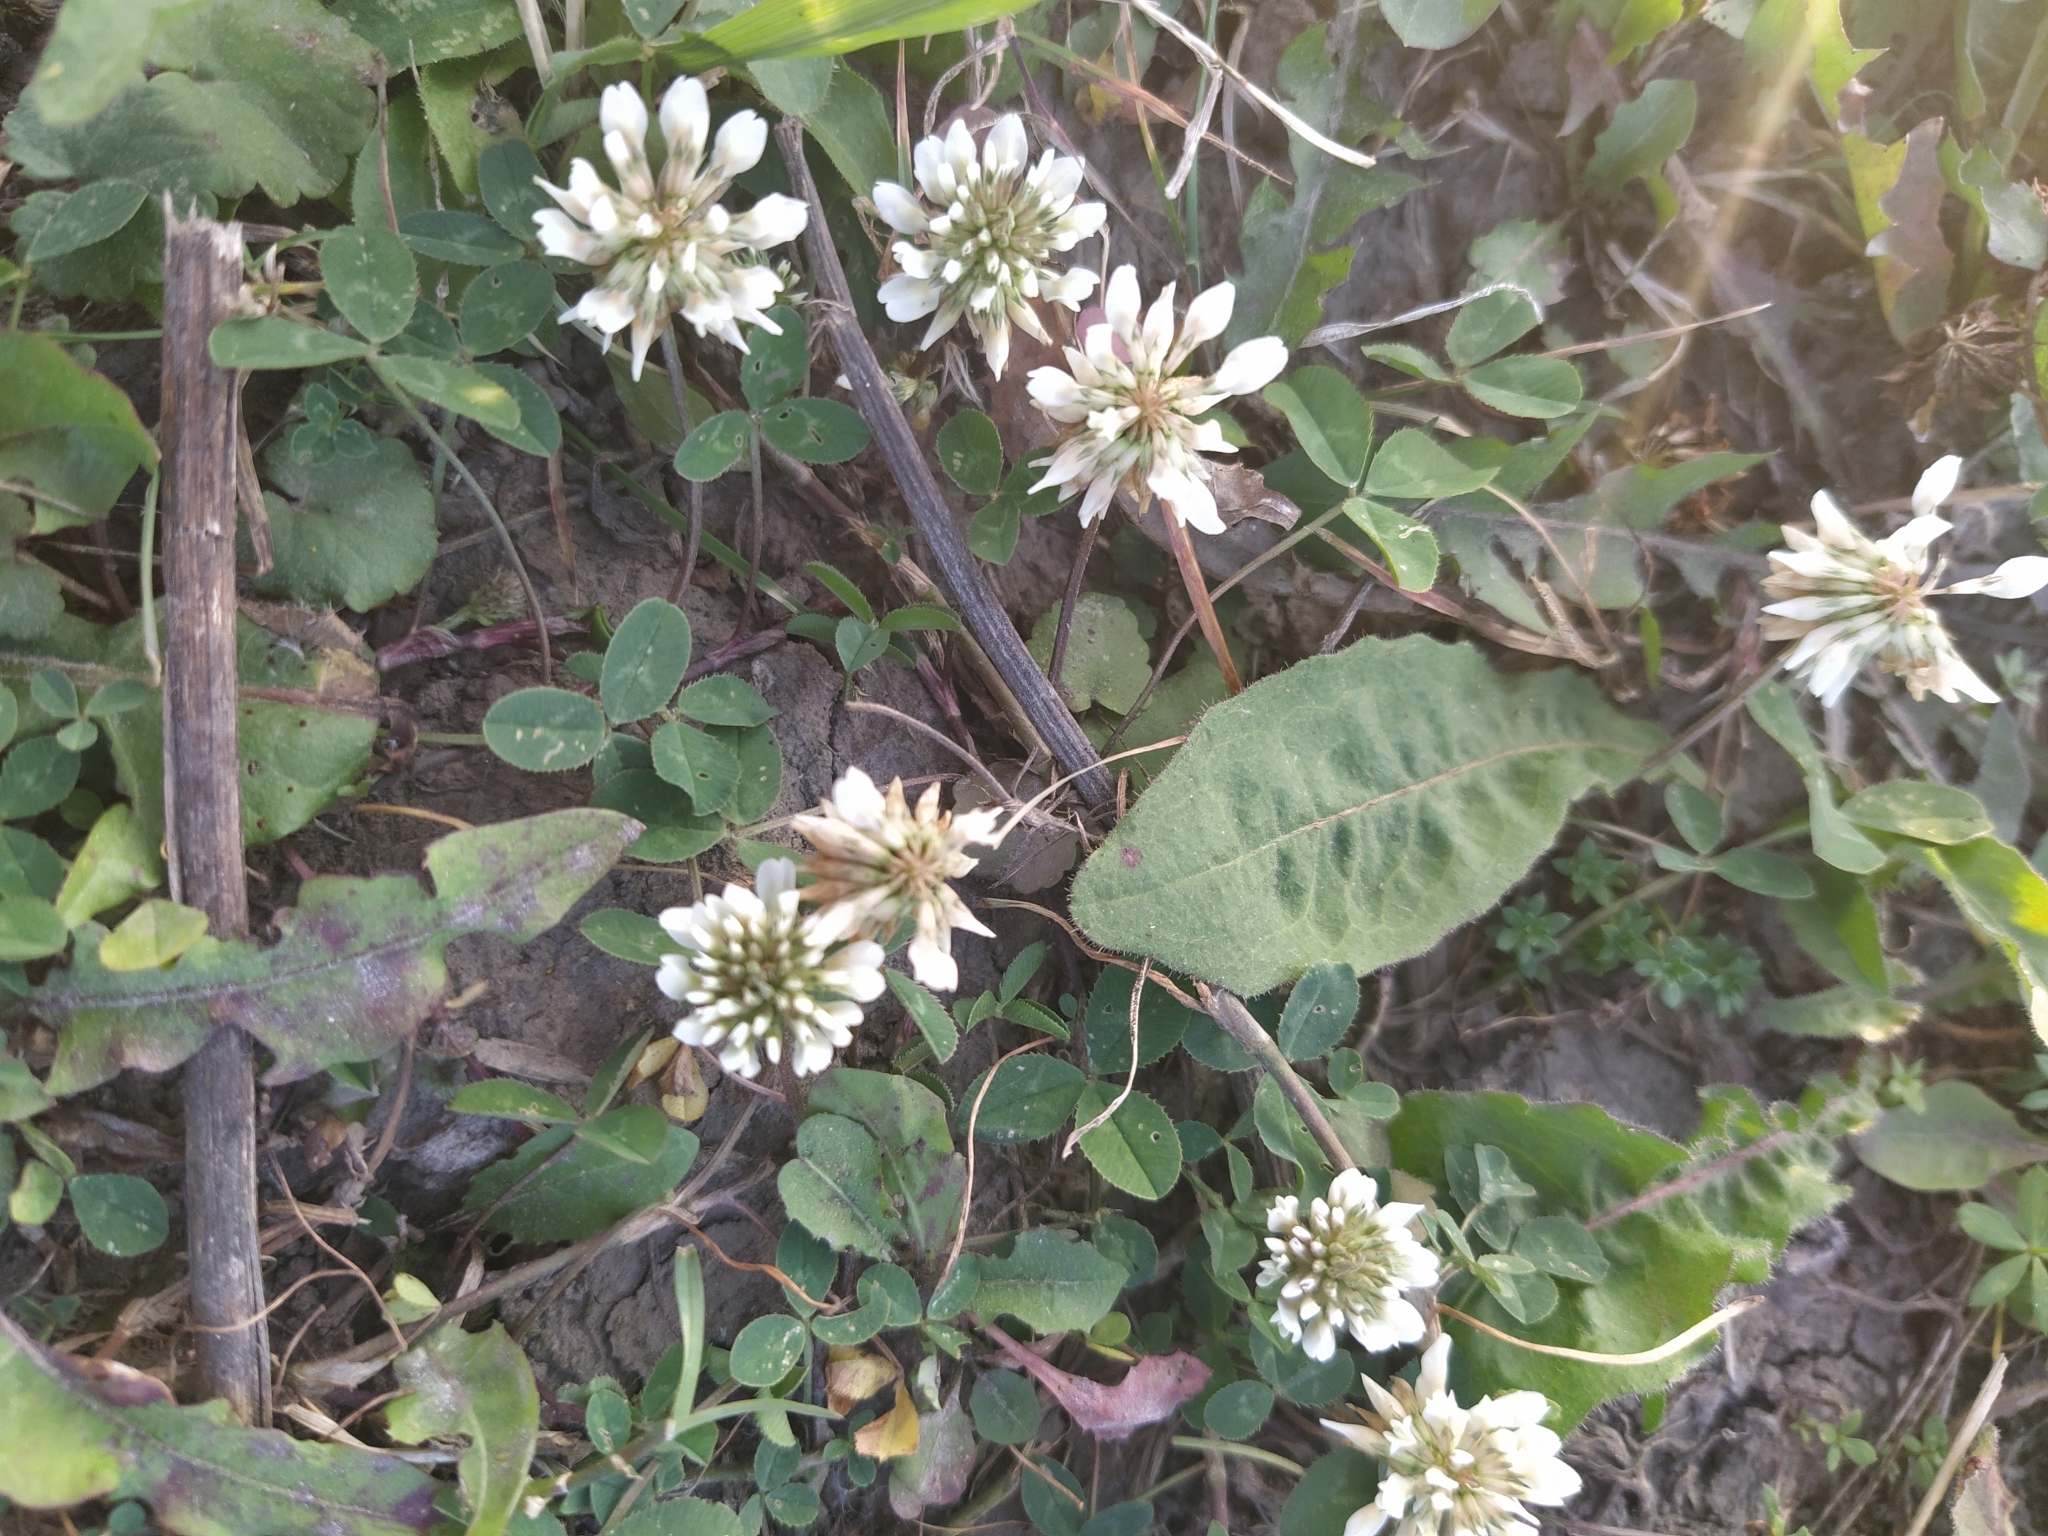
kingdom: Plantae
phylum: Tracheophyta
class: Magnoliopsida
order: Fabales
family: Fabaceae
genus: Trifolium
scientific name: Trifolium repens
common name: White clover
